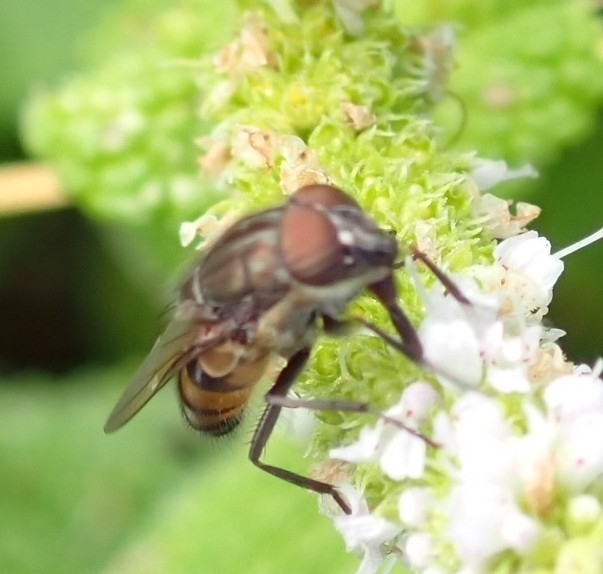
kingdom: Animalia
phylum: Arthropoda
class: Insecta
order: Diptera
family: Calliphoridae
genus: Stomorhina
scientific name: Stomorhina lunata
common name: Locust blowfly
